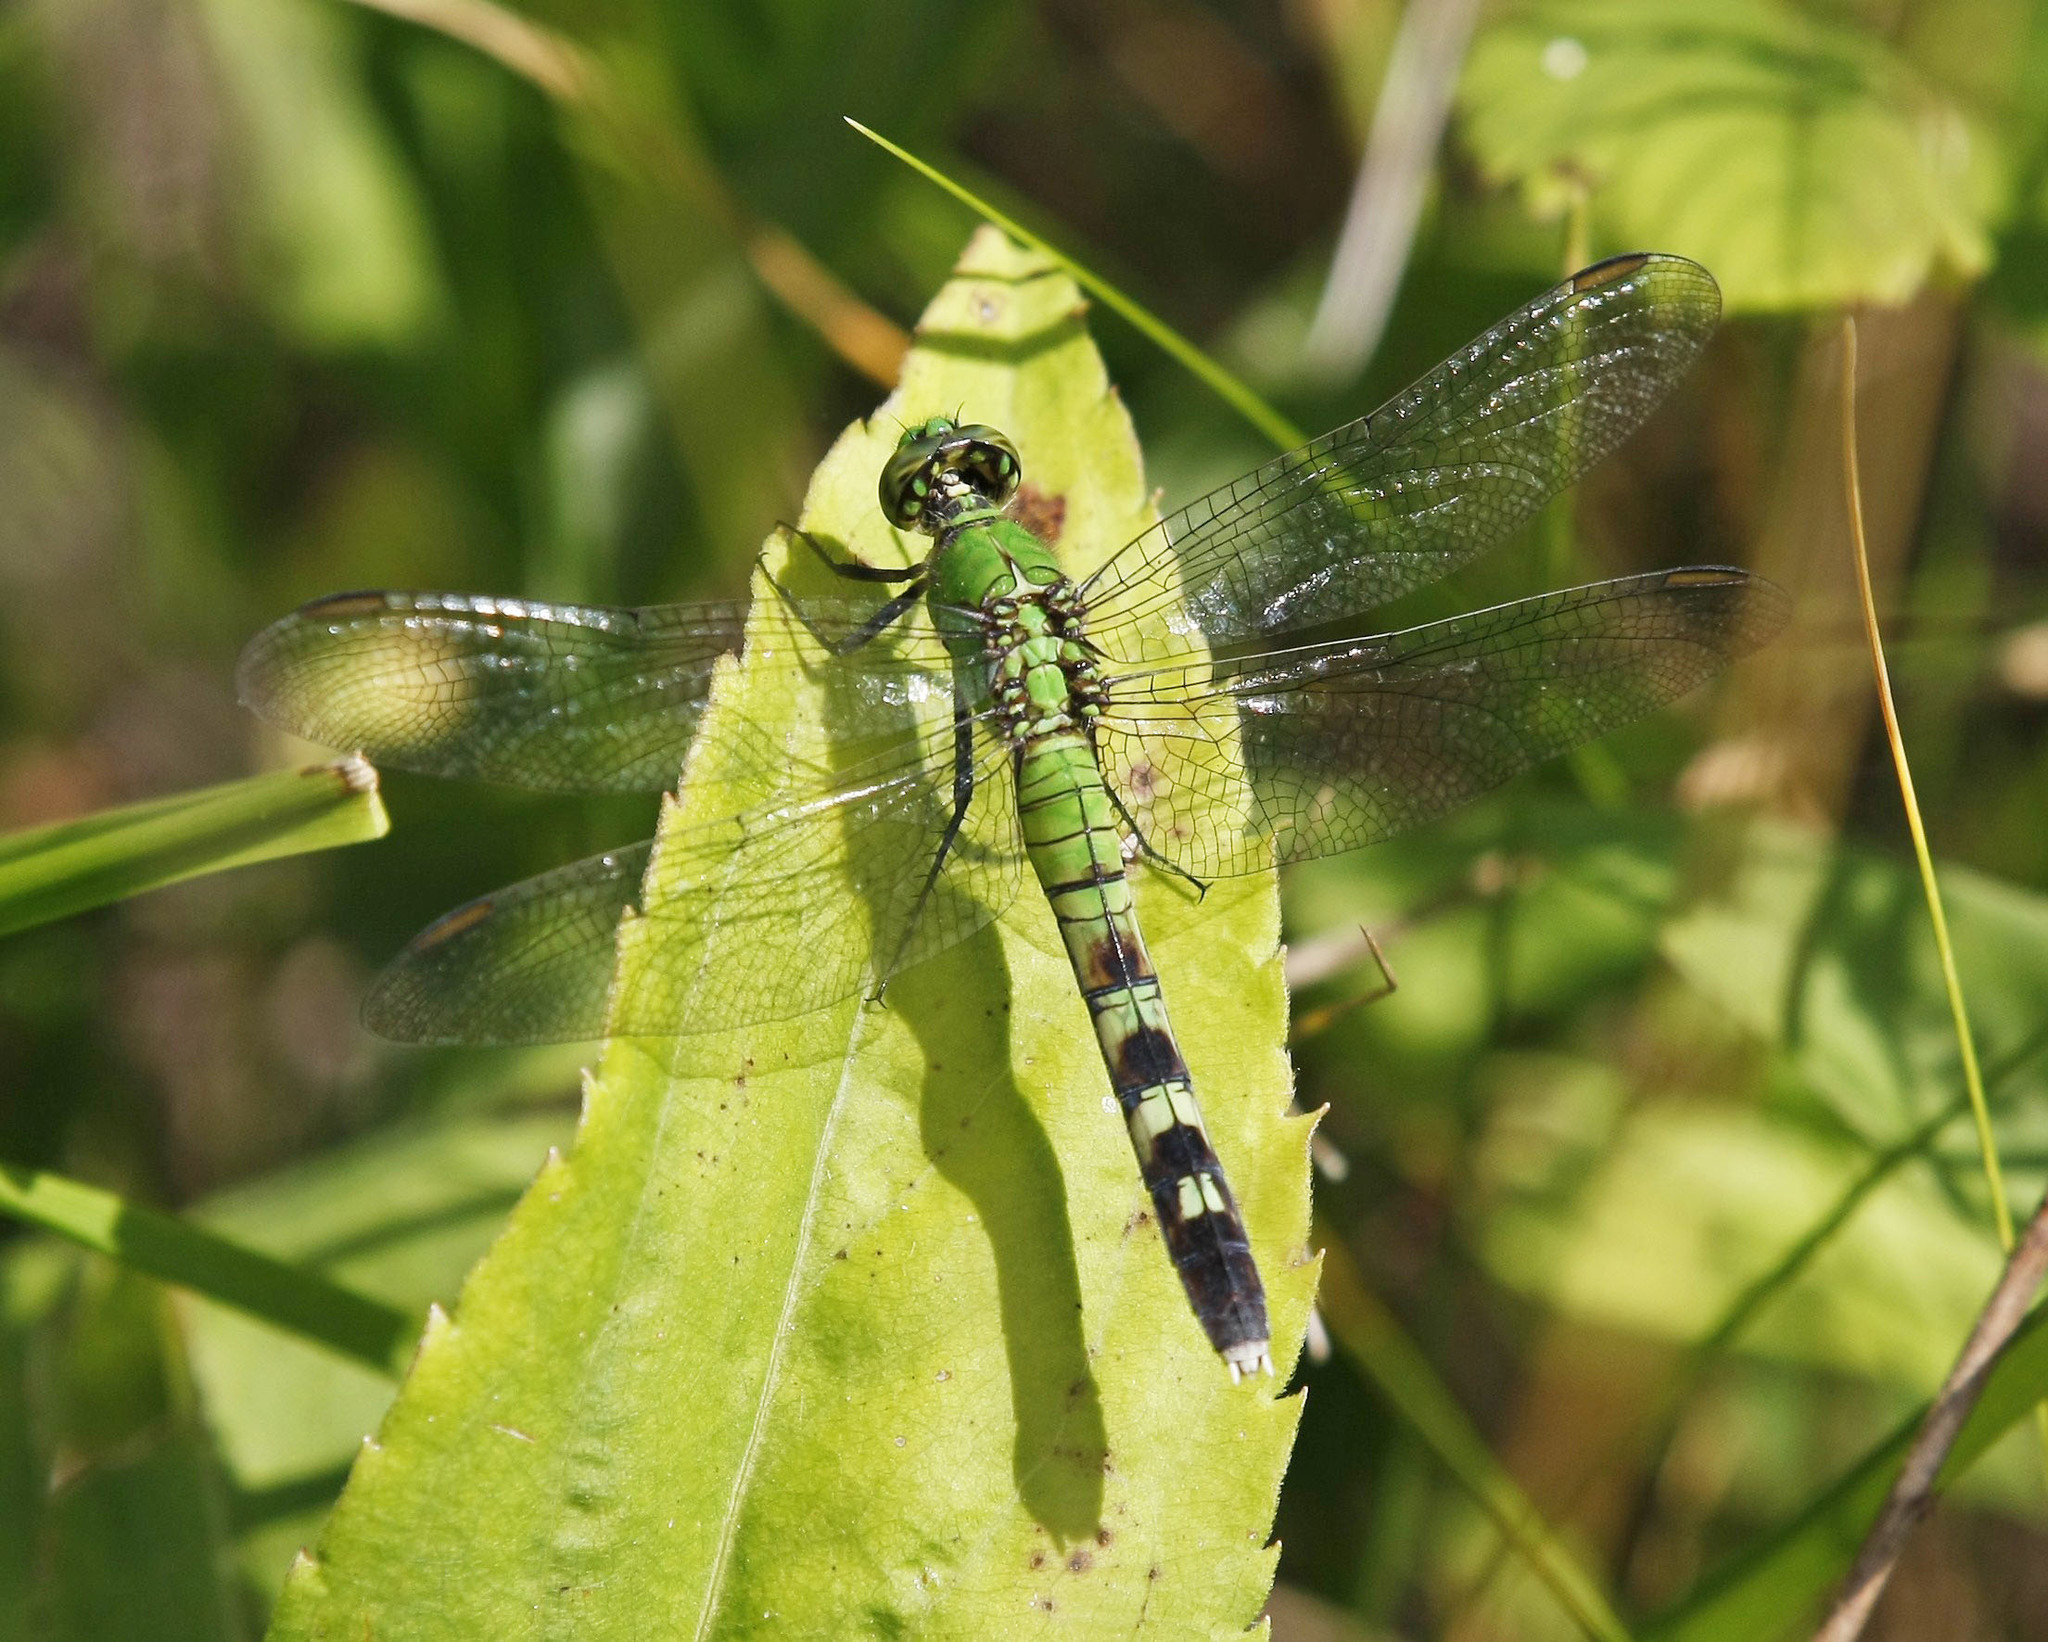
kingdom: Animalia
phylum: Arthropoda
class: Insecta
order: Odonata
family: Libellulidae
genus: Erythemis
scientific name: Erythemis simplicicollis
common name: Eastern pondhawk
